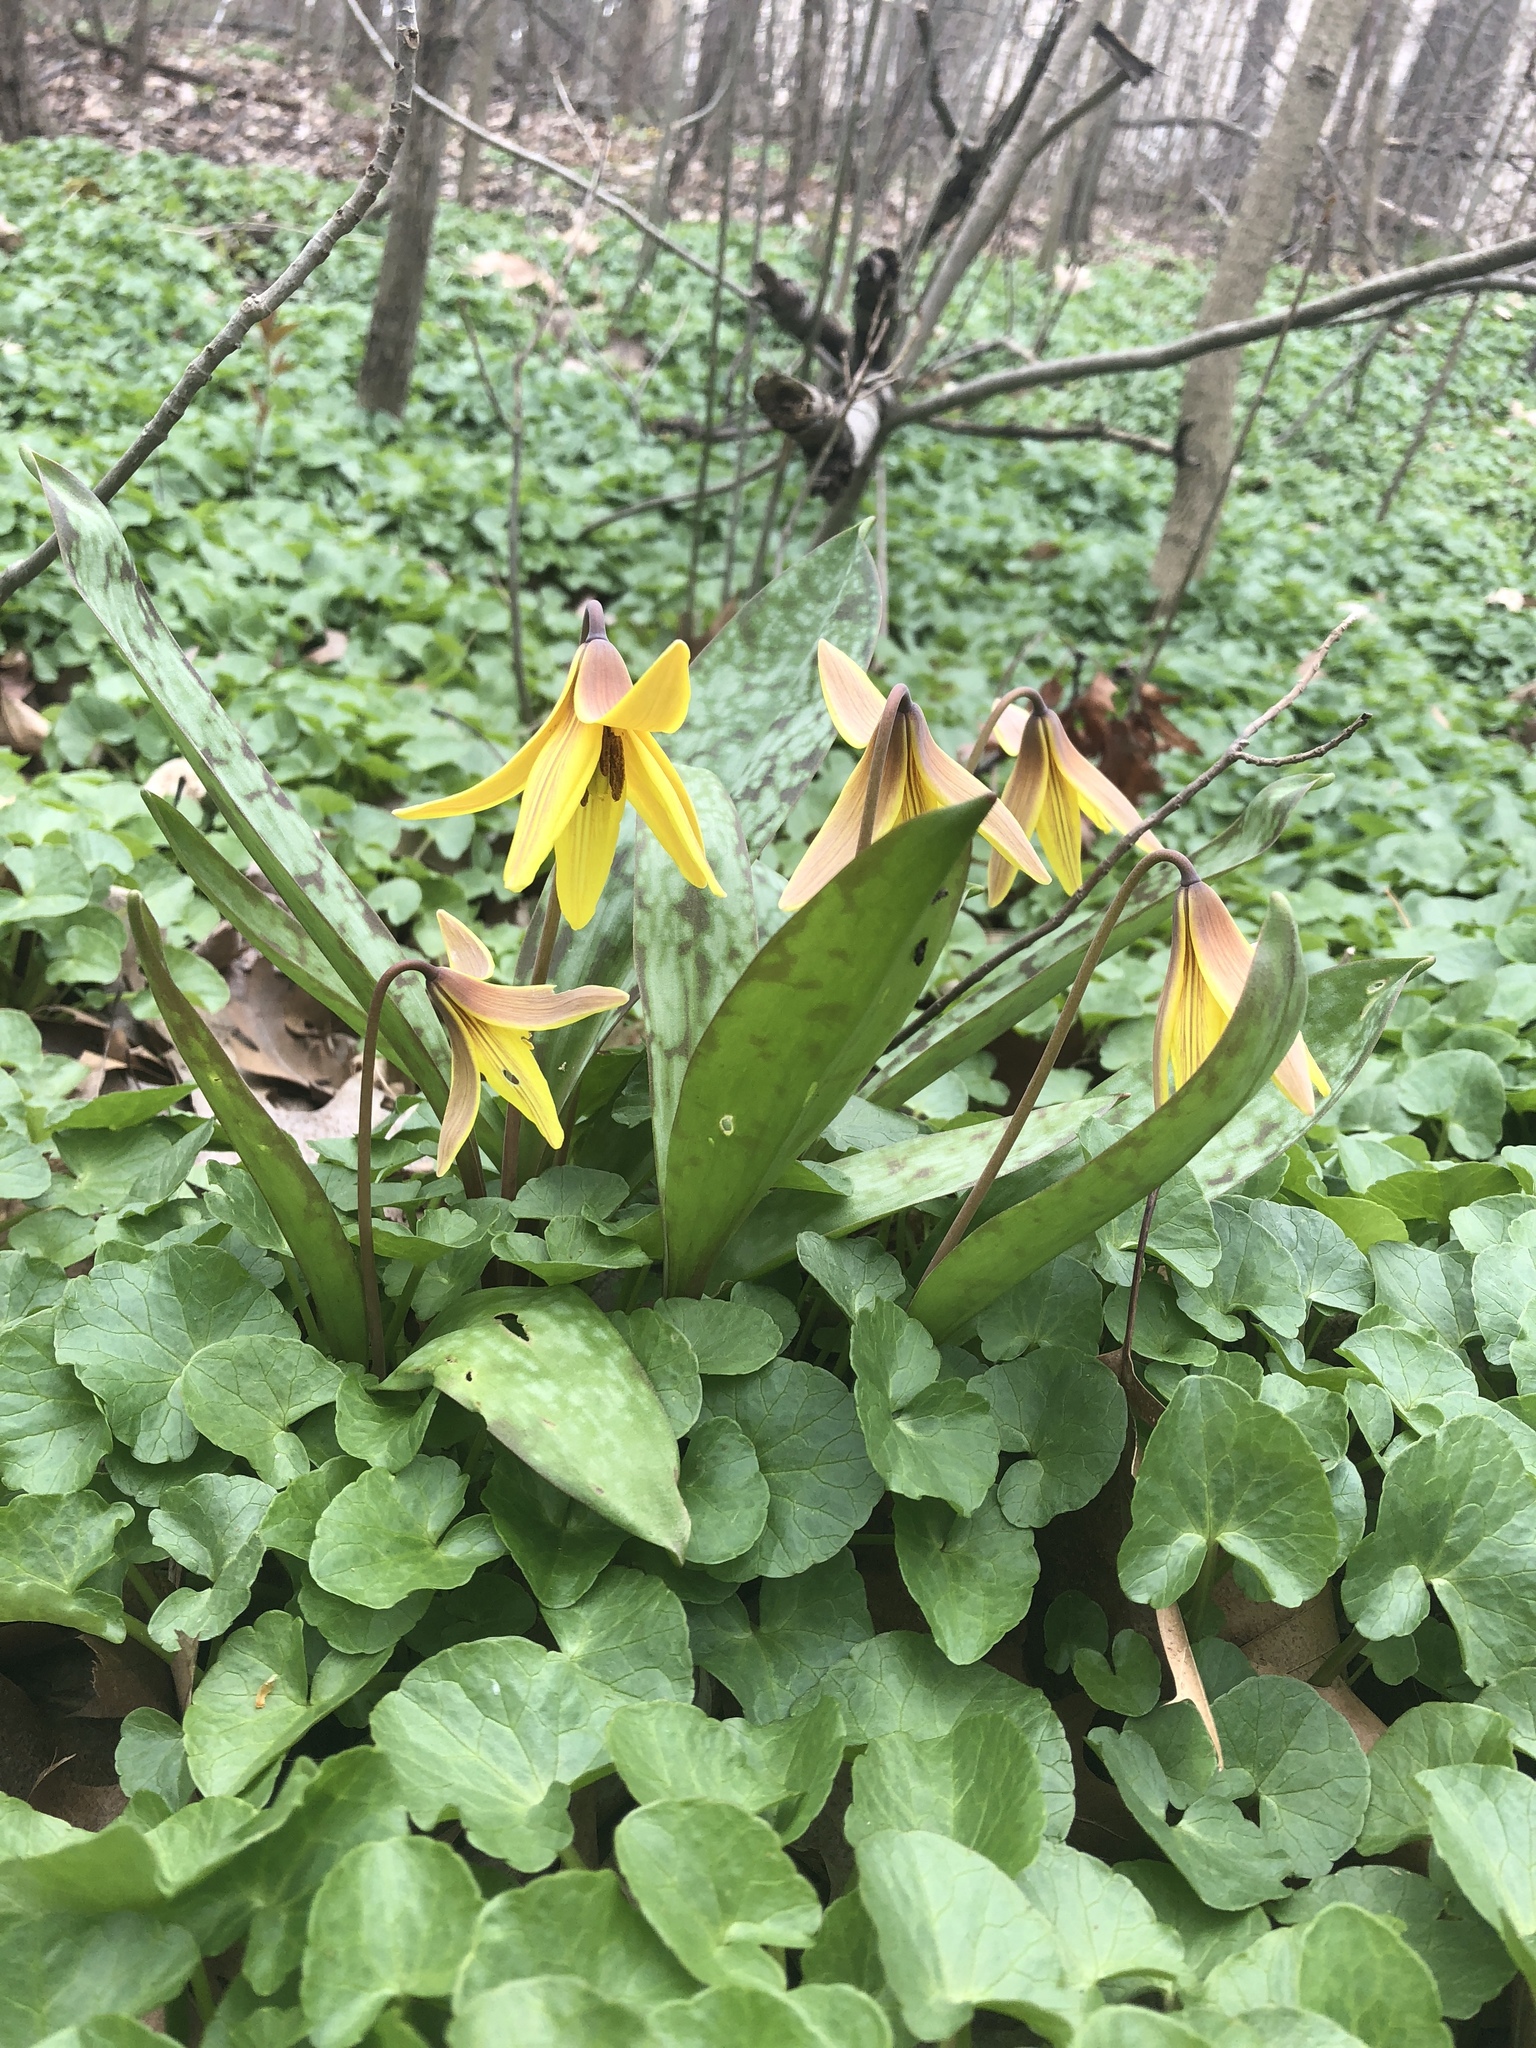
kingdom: Plantae
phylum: Tracheophyta
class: Liliopsida
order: Liliales
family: Liliaceae
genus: Erythronium
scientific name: Erythronium americanum
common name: Yellow adder's-tongue
